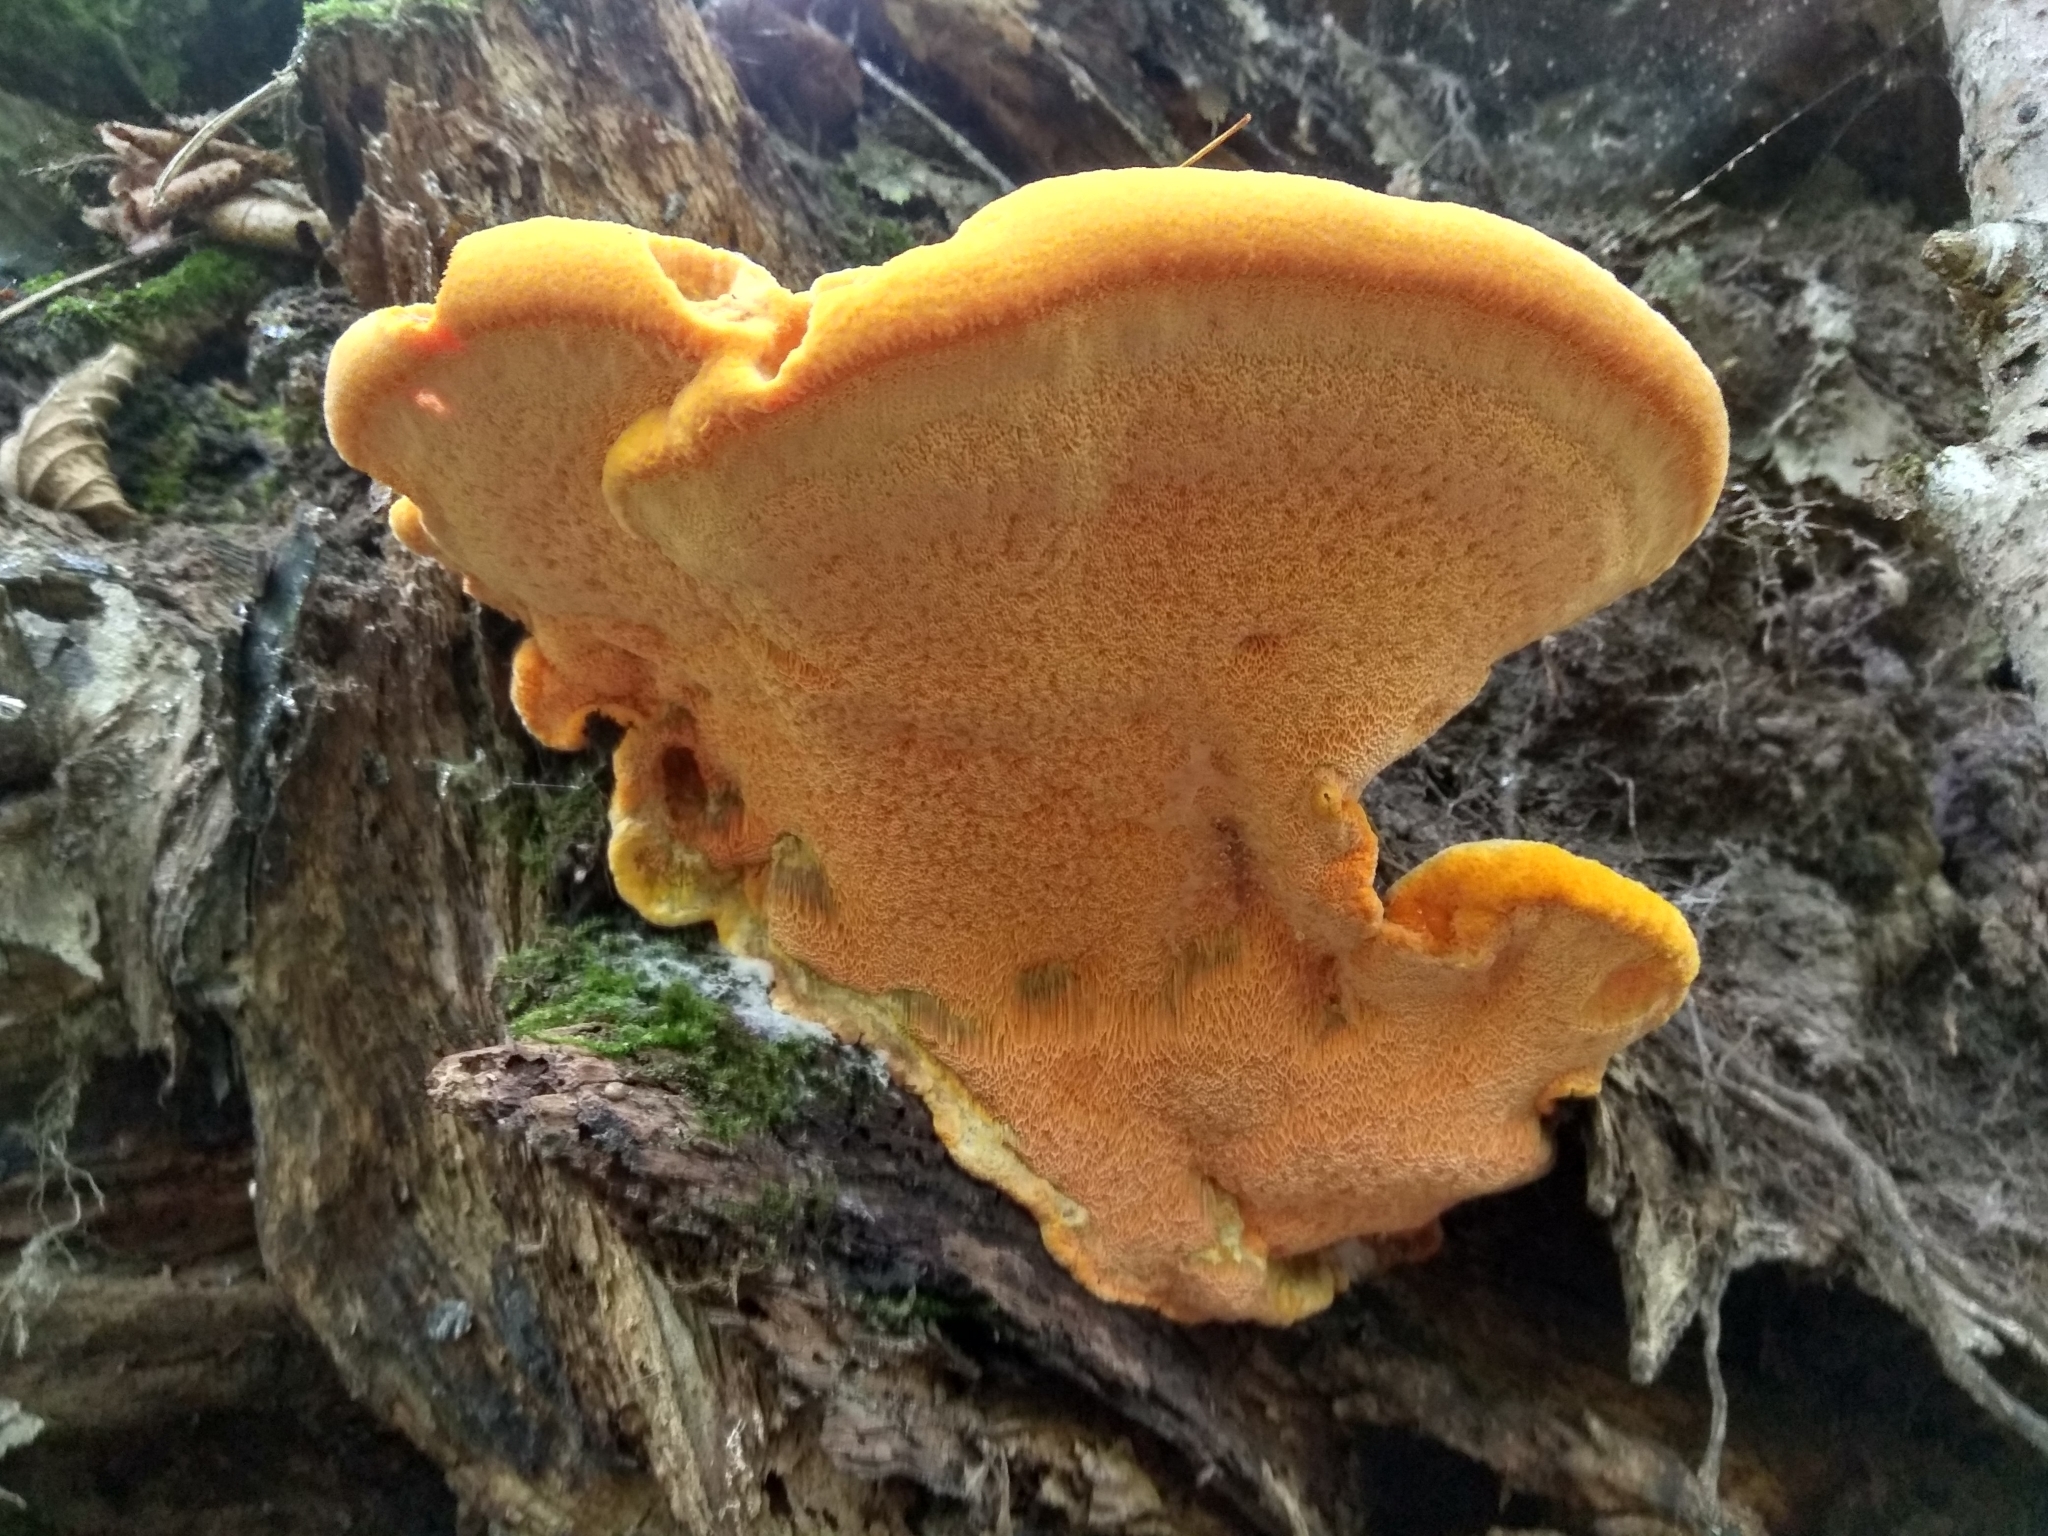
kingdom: Fungi
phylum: Basidiomycota
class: Agaricomycetes
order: Polyporales
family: Phanerochaetaceae
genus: Hapalopilus
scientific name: Hapalopilus croceus
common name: Orange polypore
